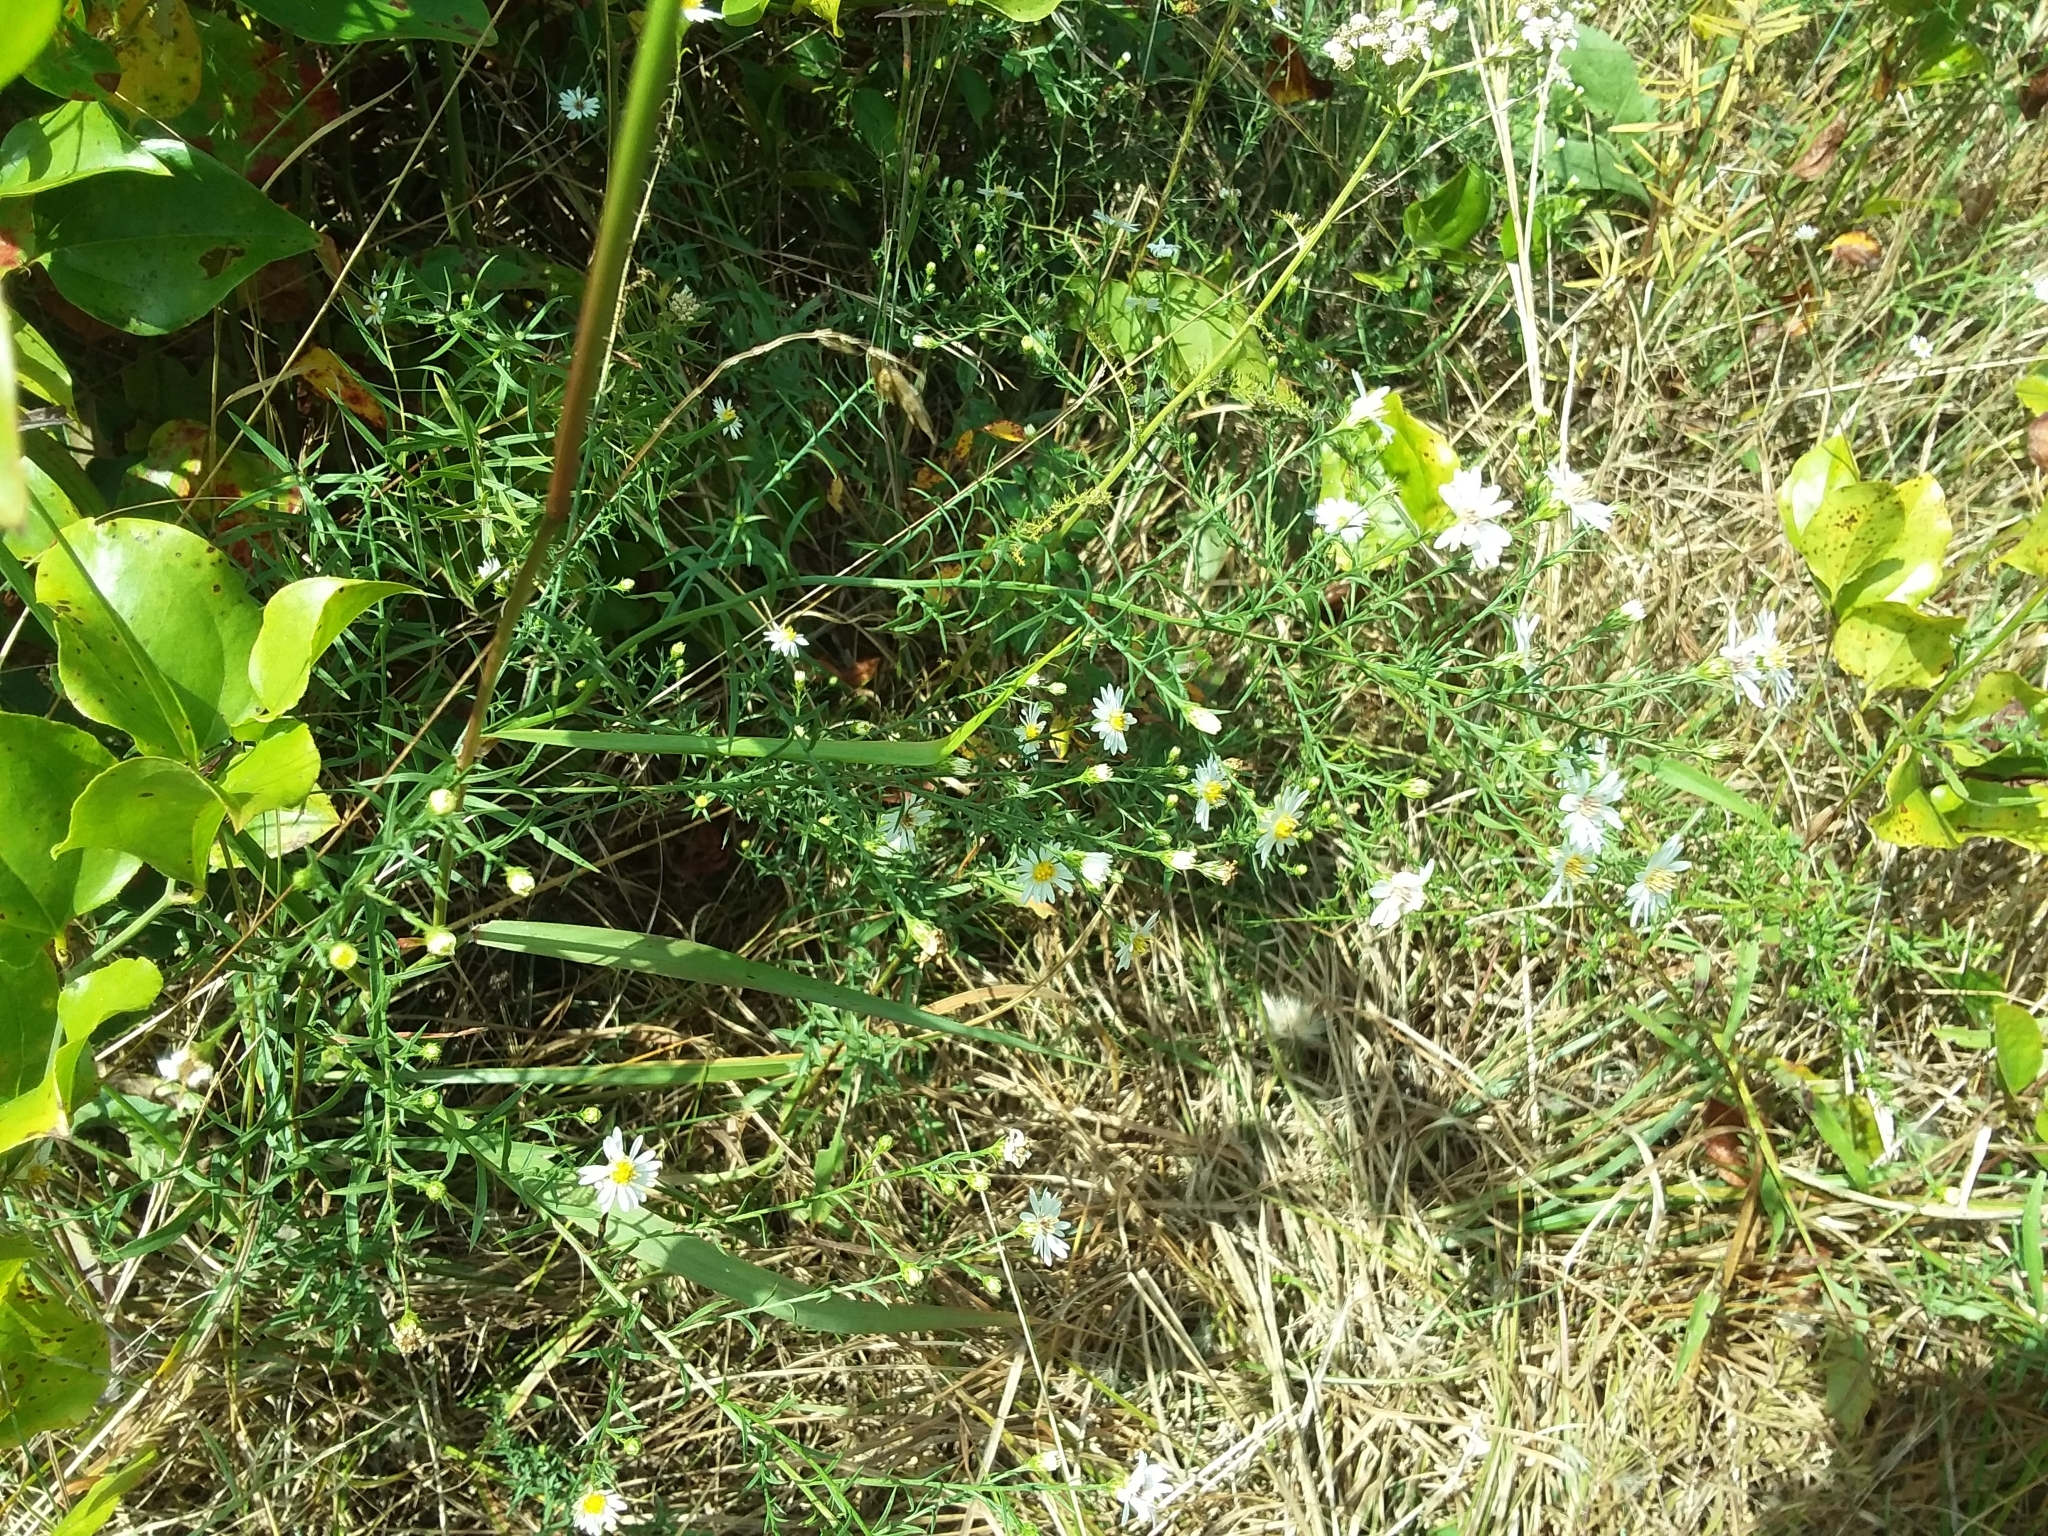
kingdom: Plantae
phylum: Tracheophyta
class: Magnoliopsida
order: Asterales
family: Asteraceae
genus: Symphyotrichum
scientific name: Symphyotrichum pilosum
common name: Awl aster
